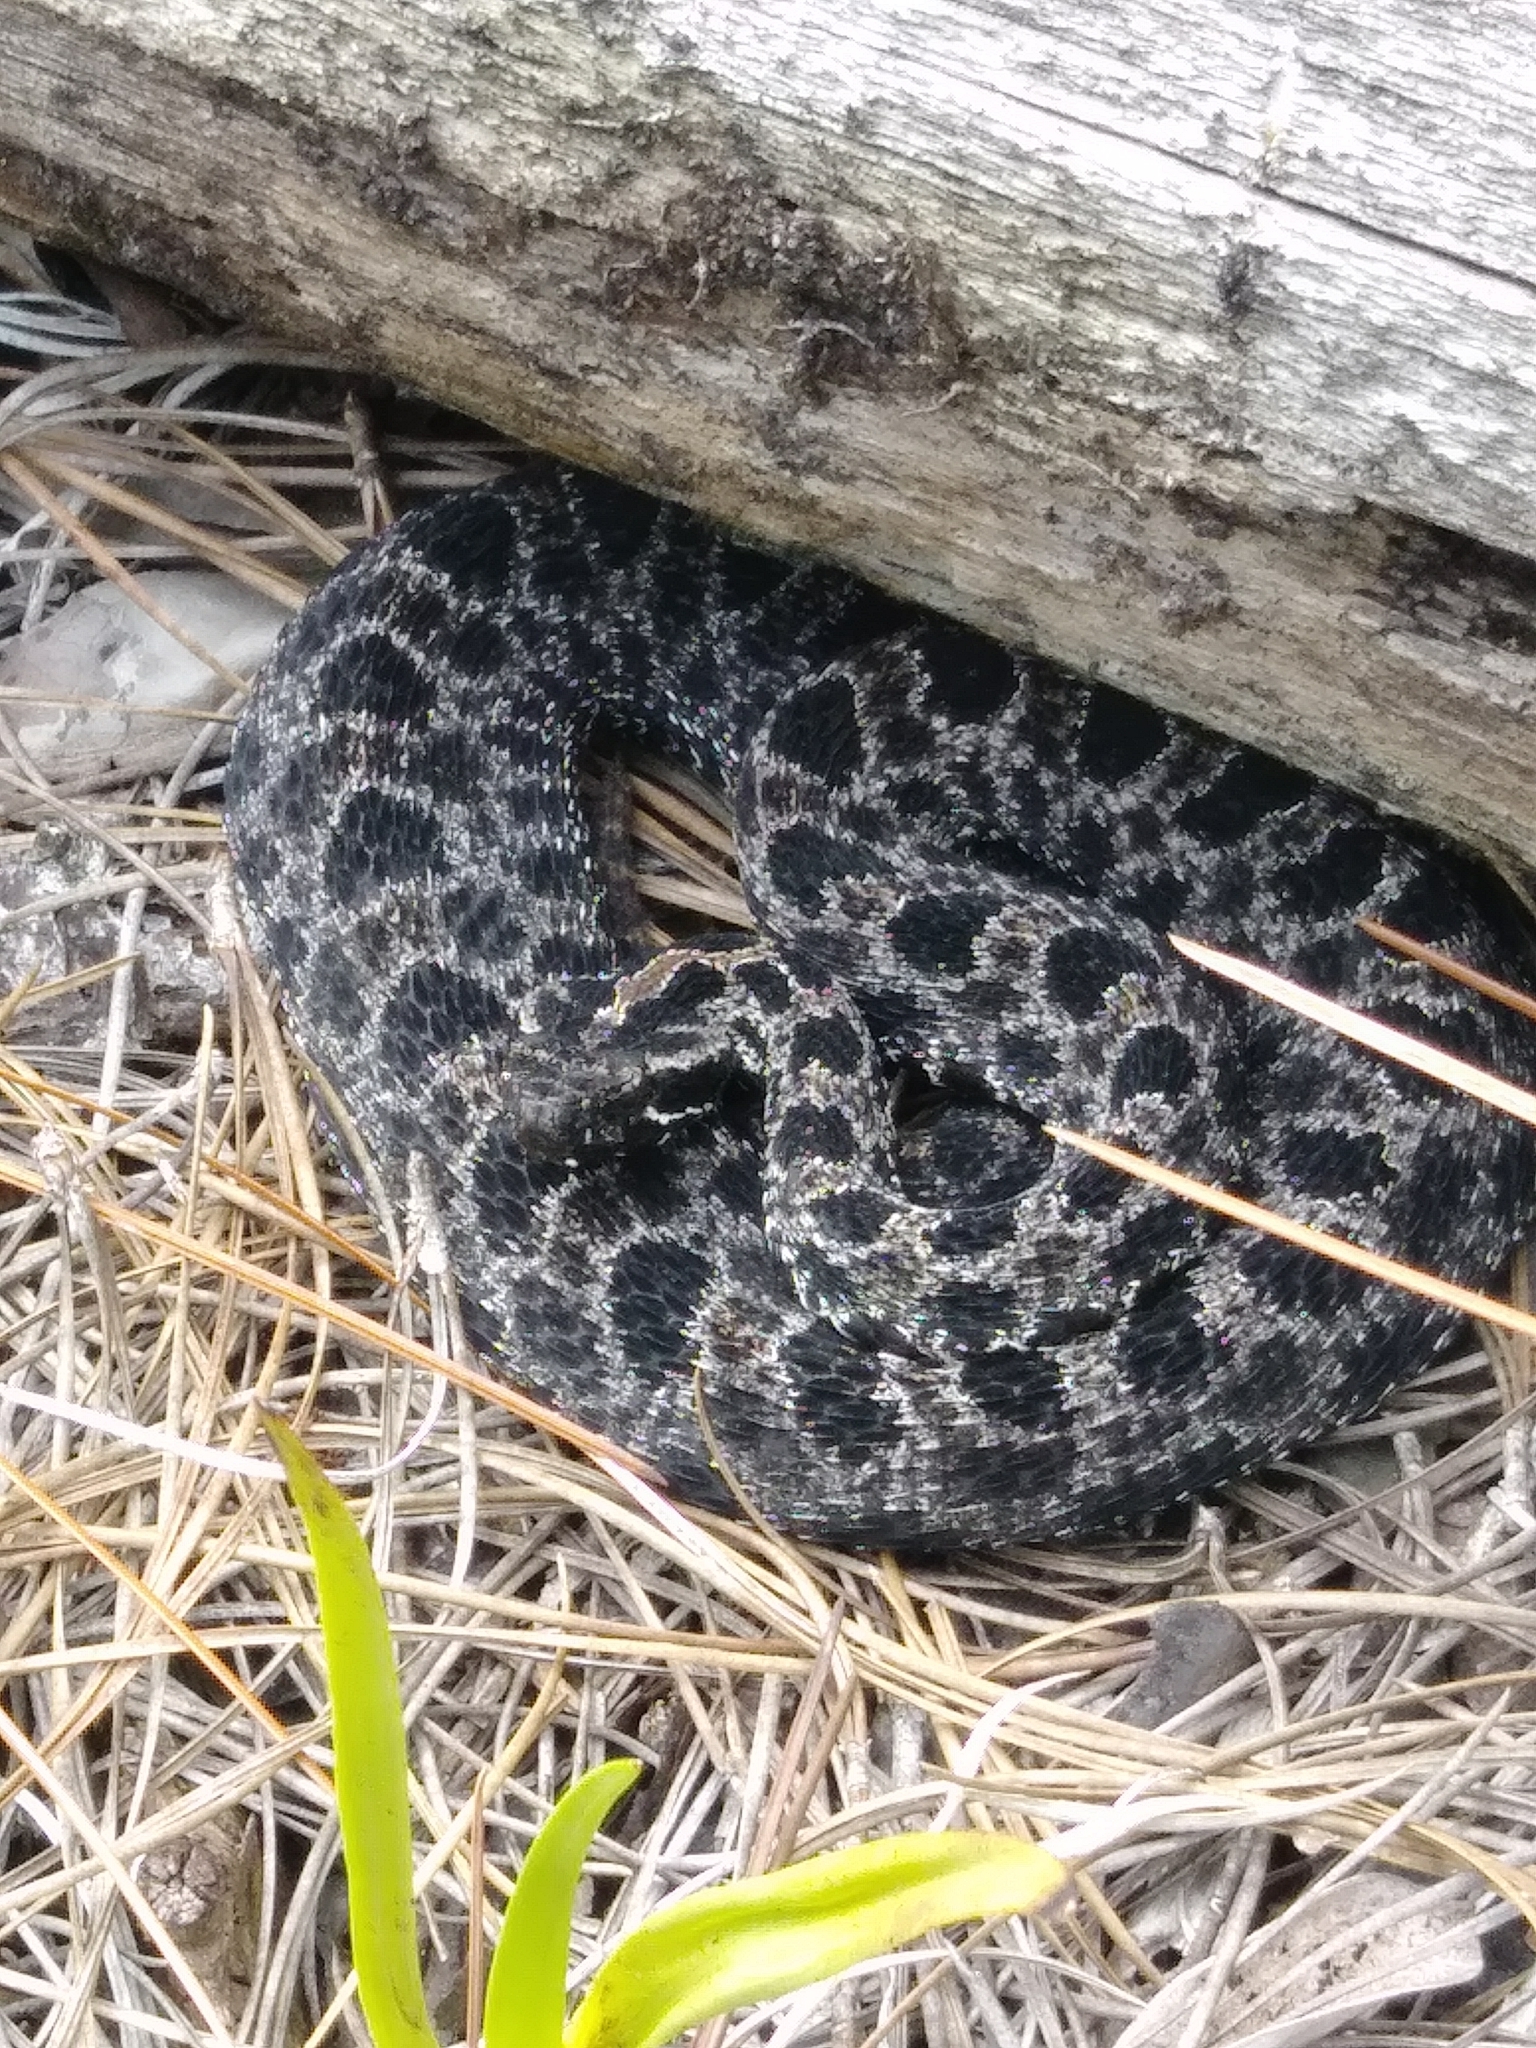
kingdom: Animalia
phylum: Chordata
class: Squamata
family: Viperidae
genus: Sistrurus
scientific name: Sistrurus miliarius
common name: Pygmy rattlesnake
